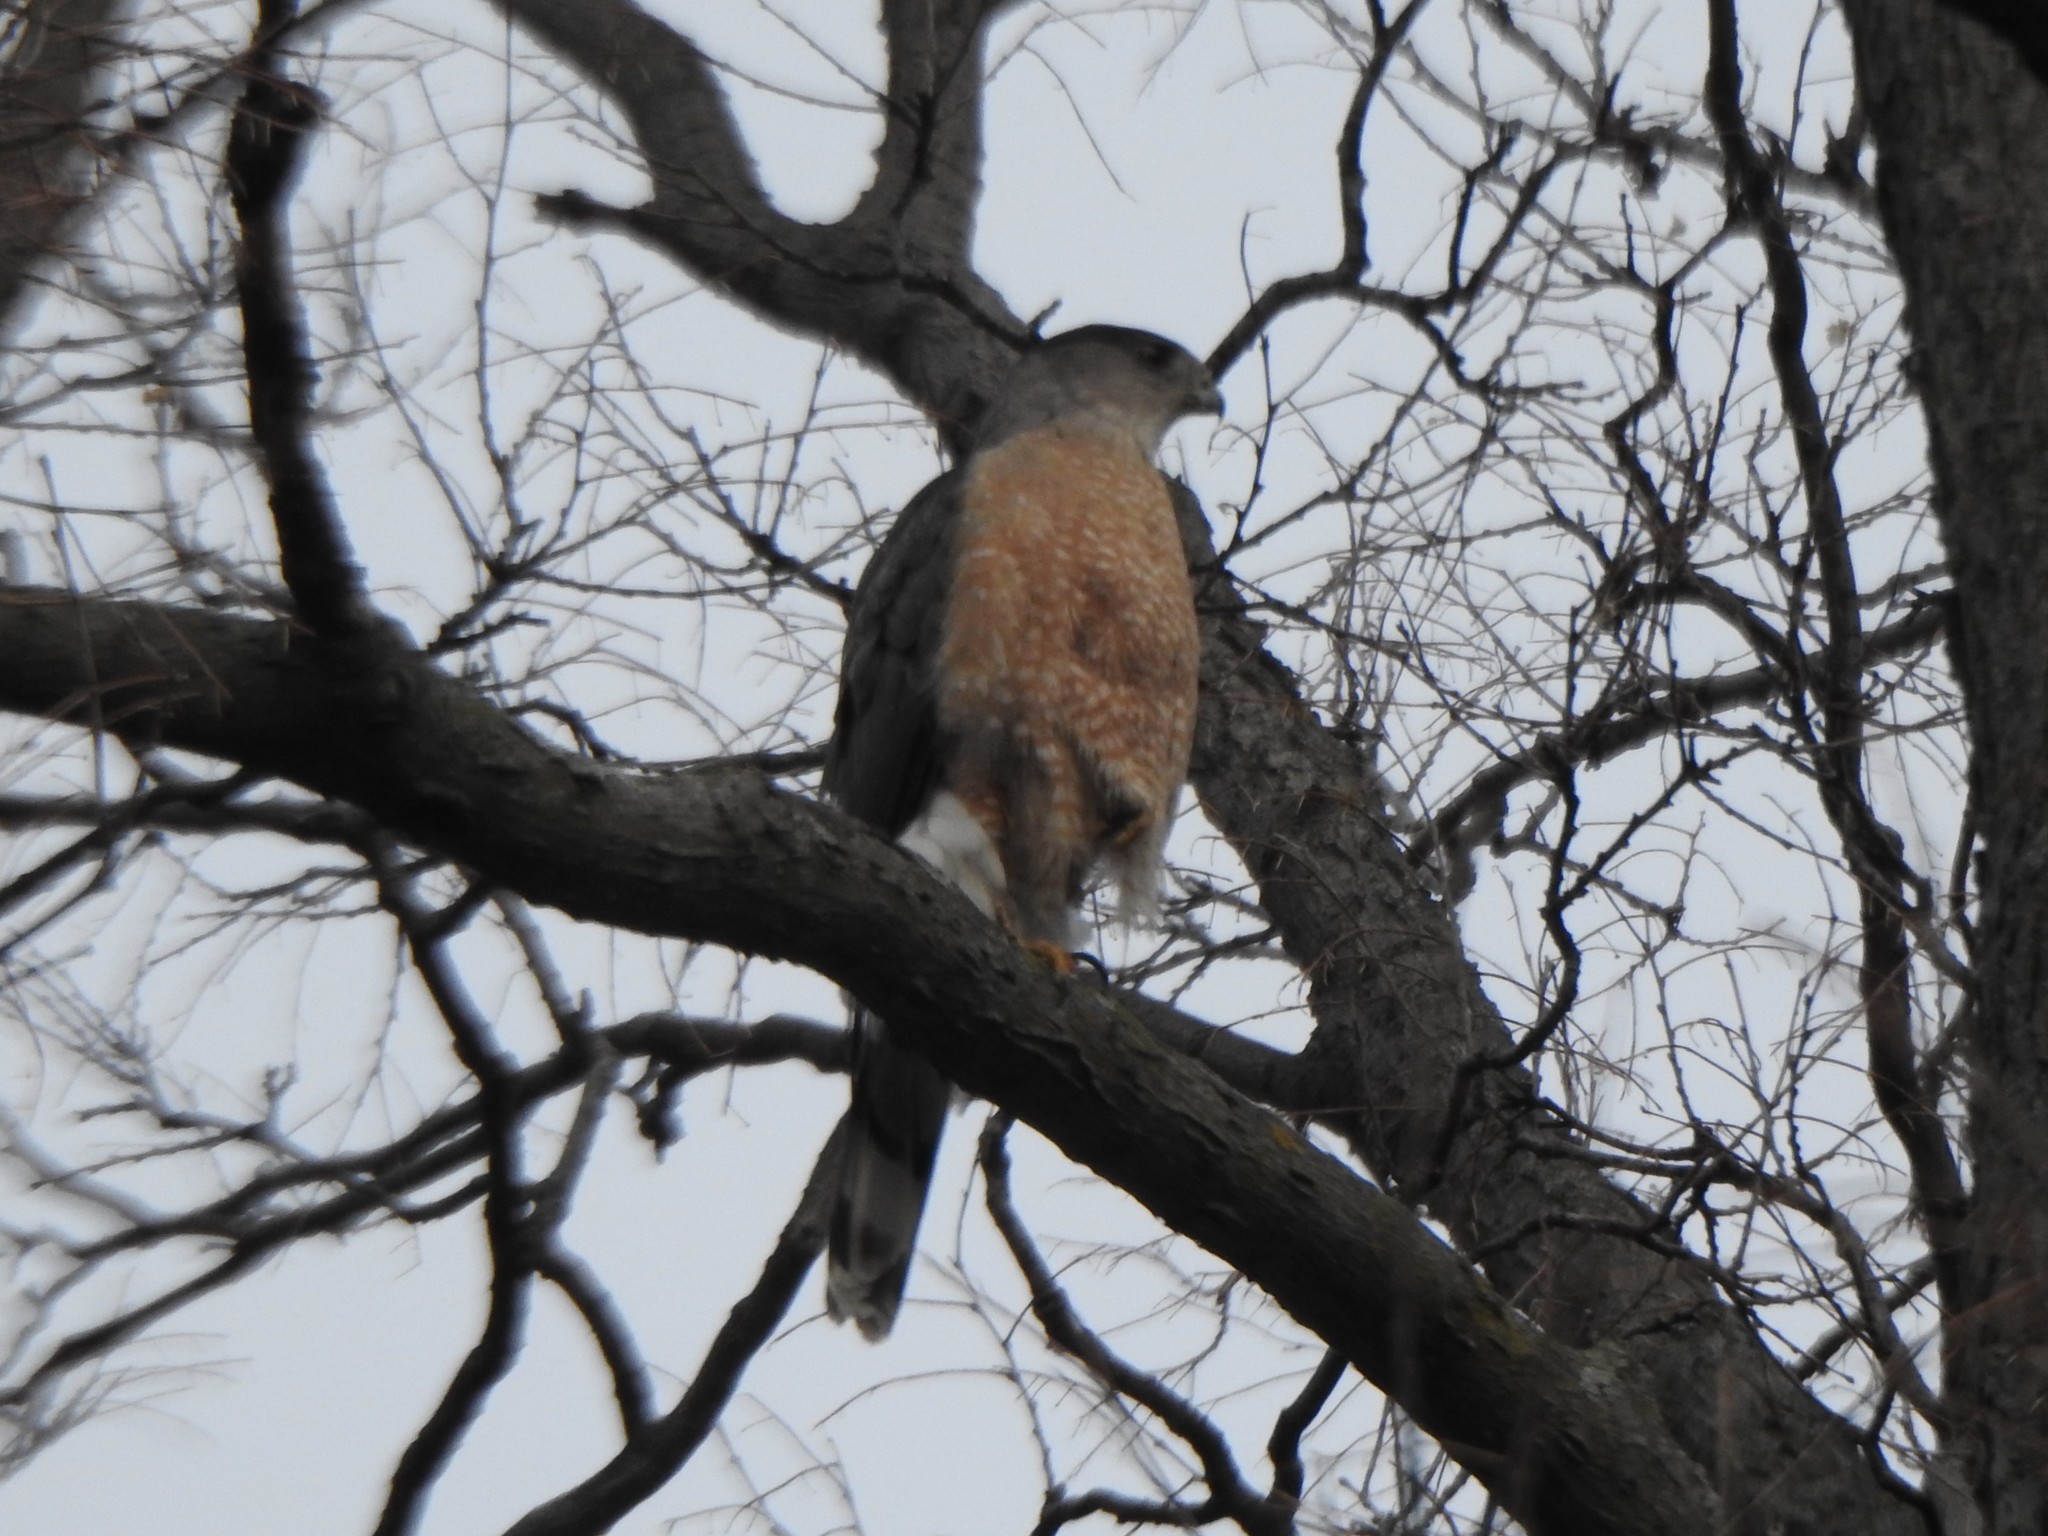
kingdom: Animalia
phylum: Chordata
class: Aves
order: Accipitriformes
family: Accipitridae
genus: Accipiter
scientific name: Accipiter cooperii
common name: Cooper's hawk
